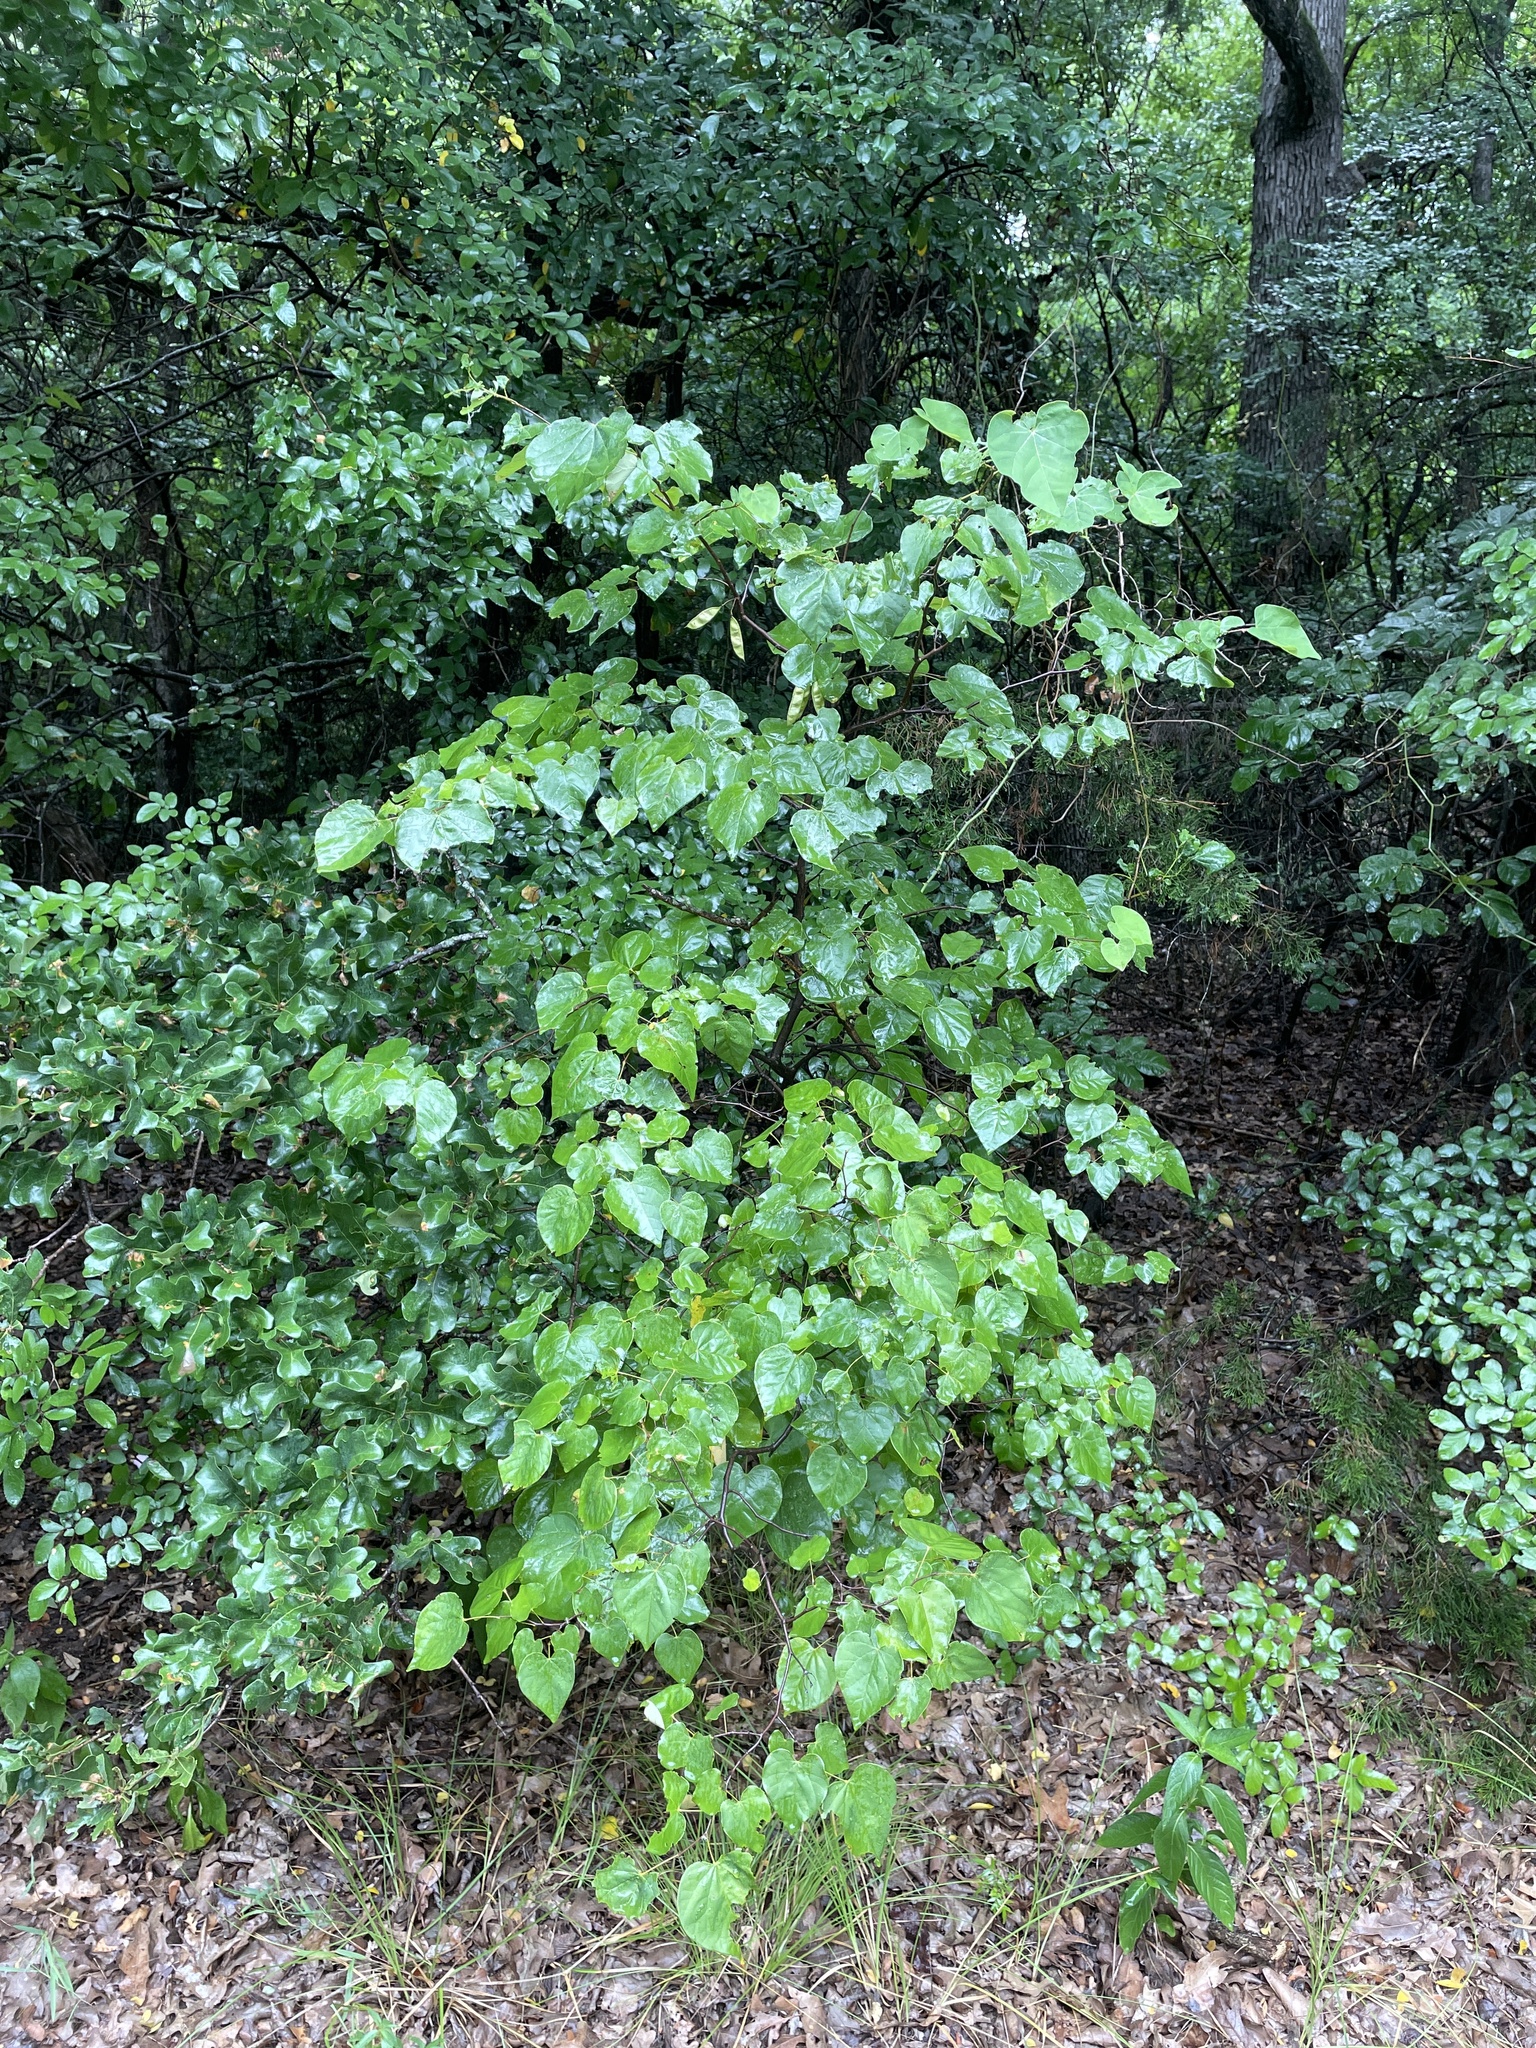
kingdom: Plantae
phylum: Tracheophyta
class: Magnoliopsida
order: Fabales
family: Fabaceae
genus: Cercis
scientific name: Cercis canadensis
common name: Eastern redbud
